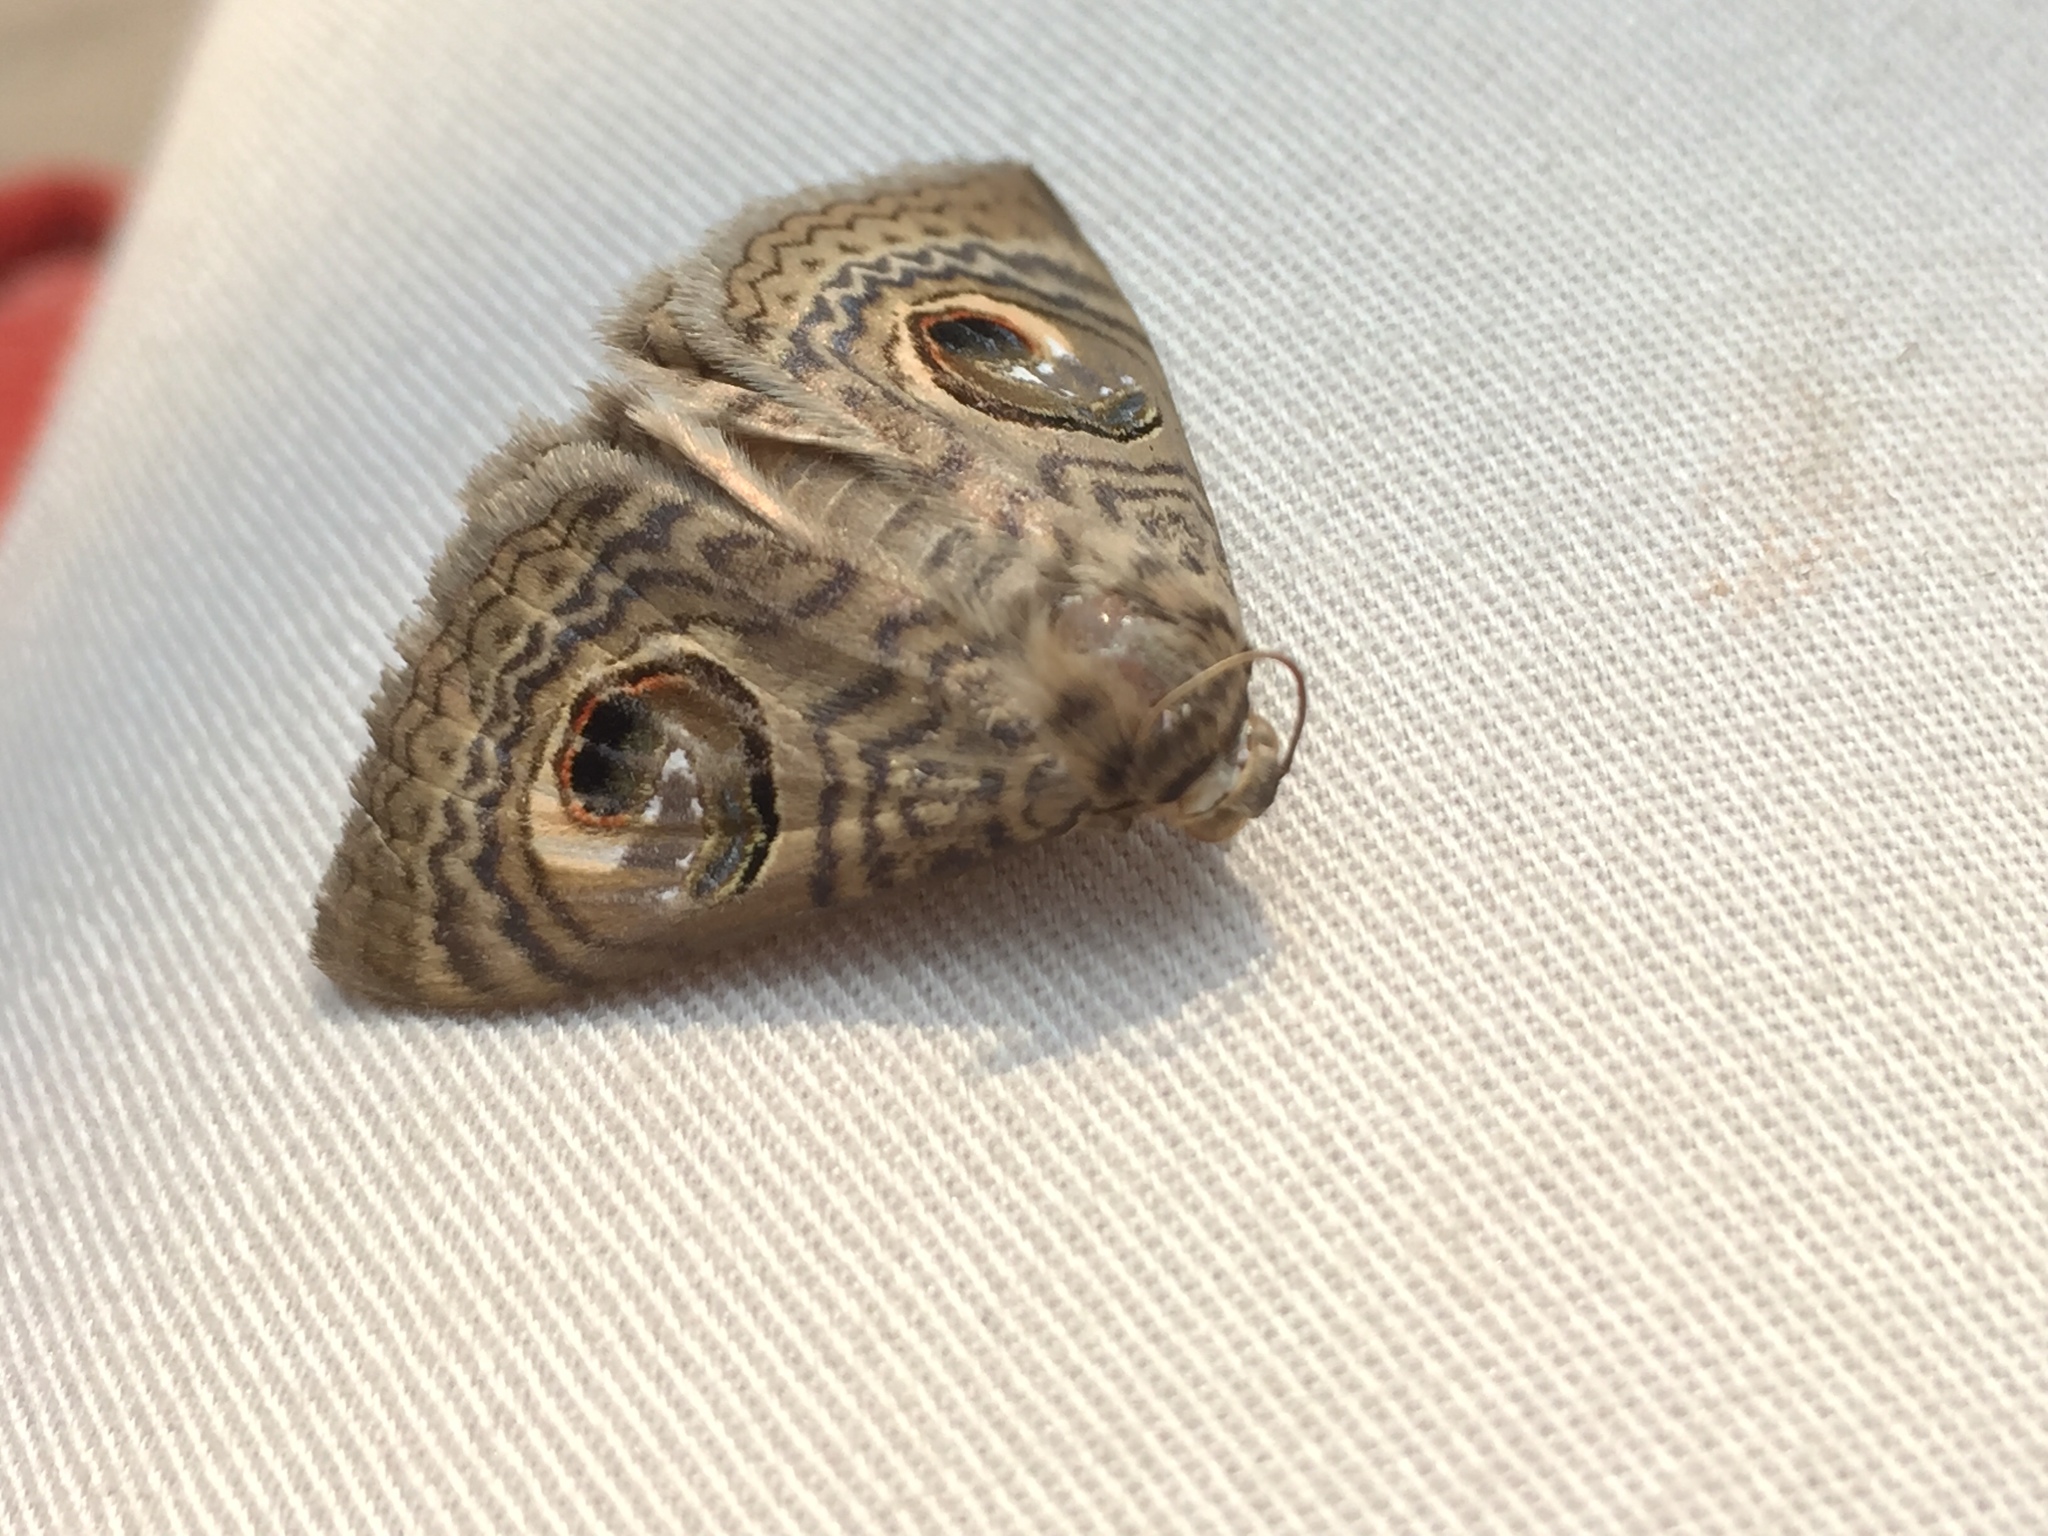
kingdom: Animalia
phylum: Arthropoda
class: Insecta
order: Lepidoptera
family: Erebidae
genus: Calliodes
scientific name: Calliodes pretiosissima
